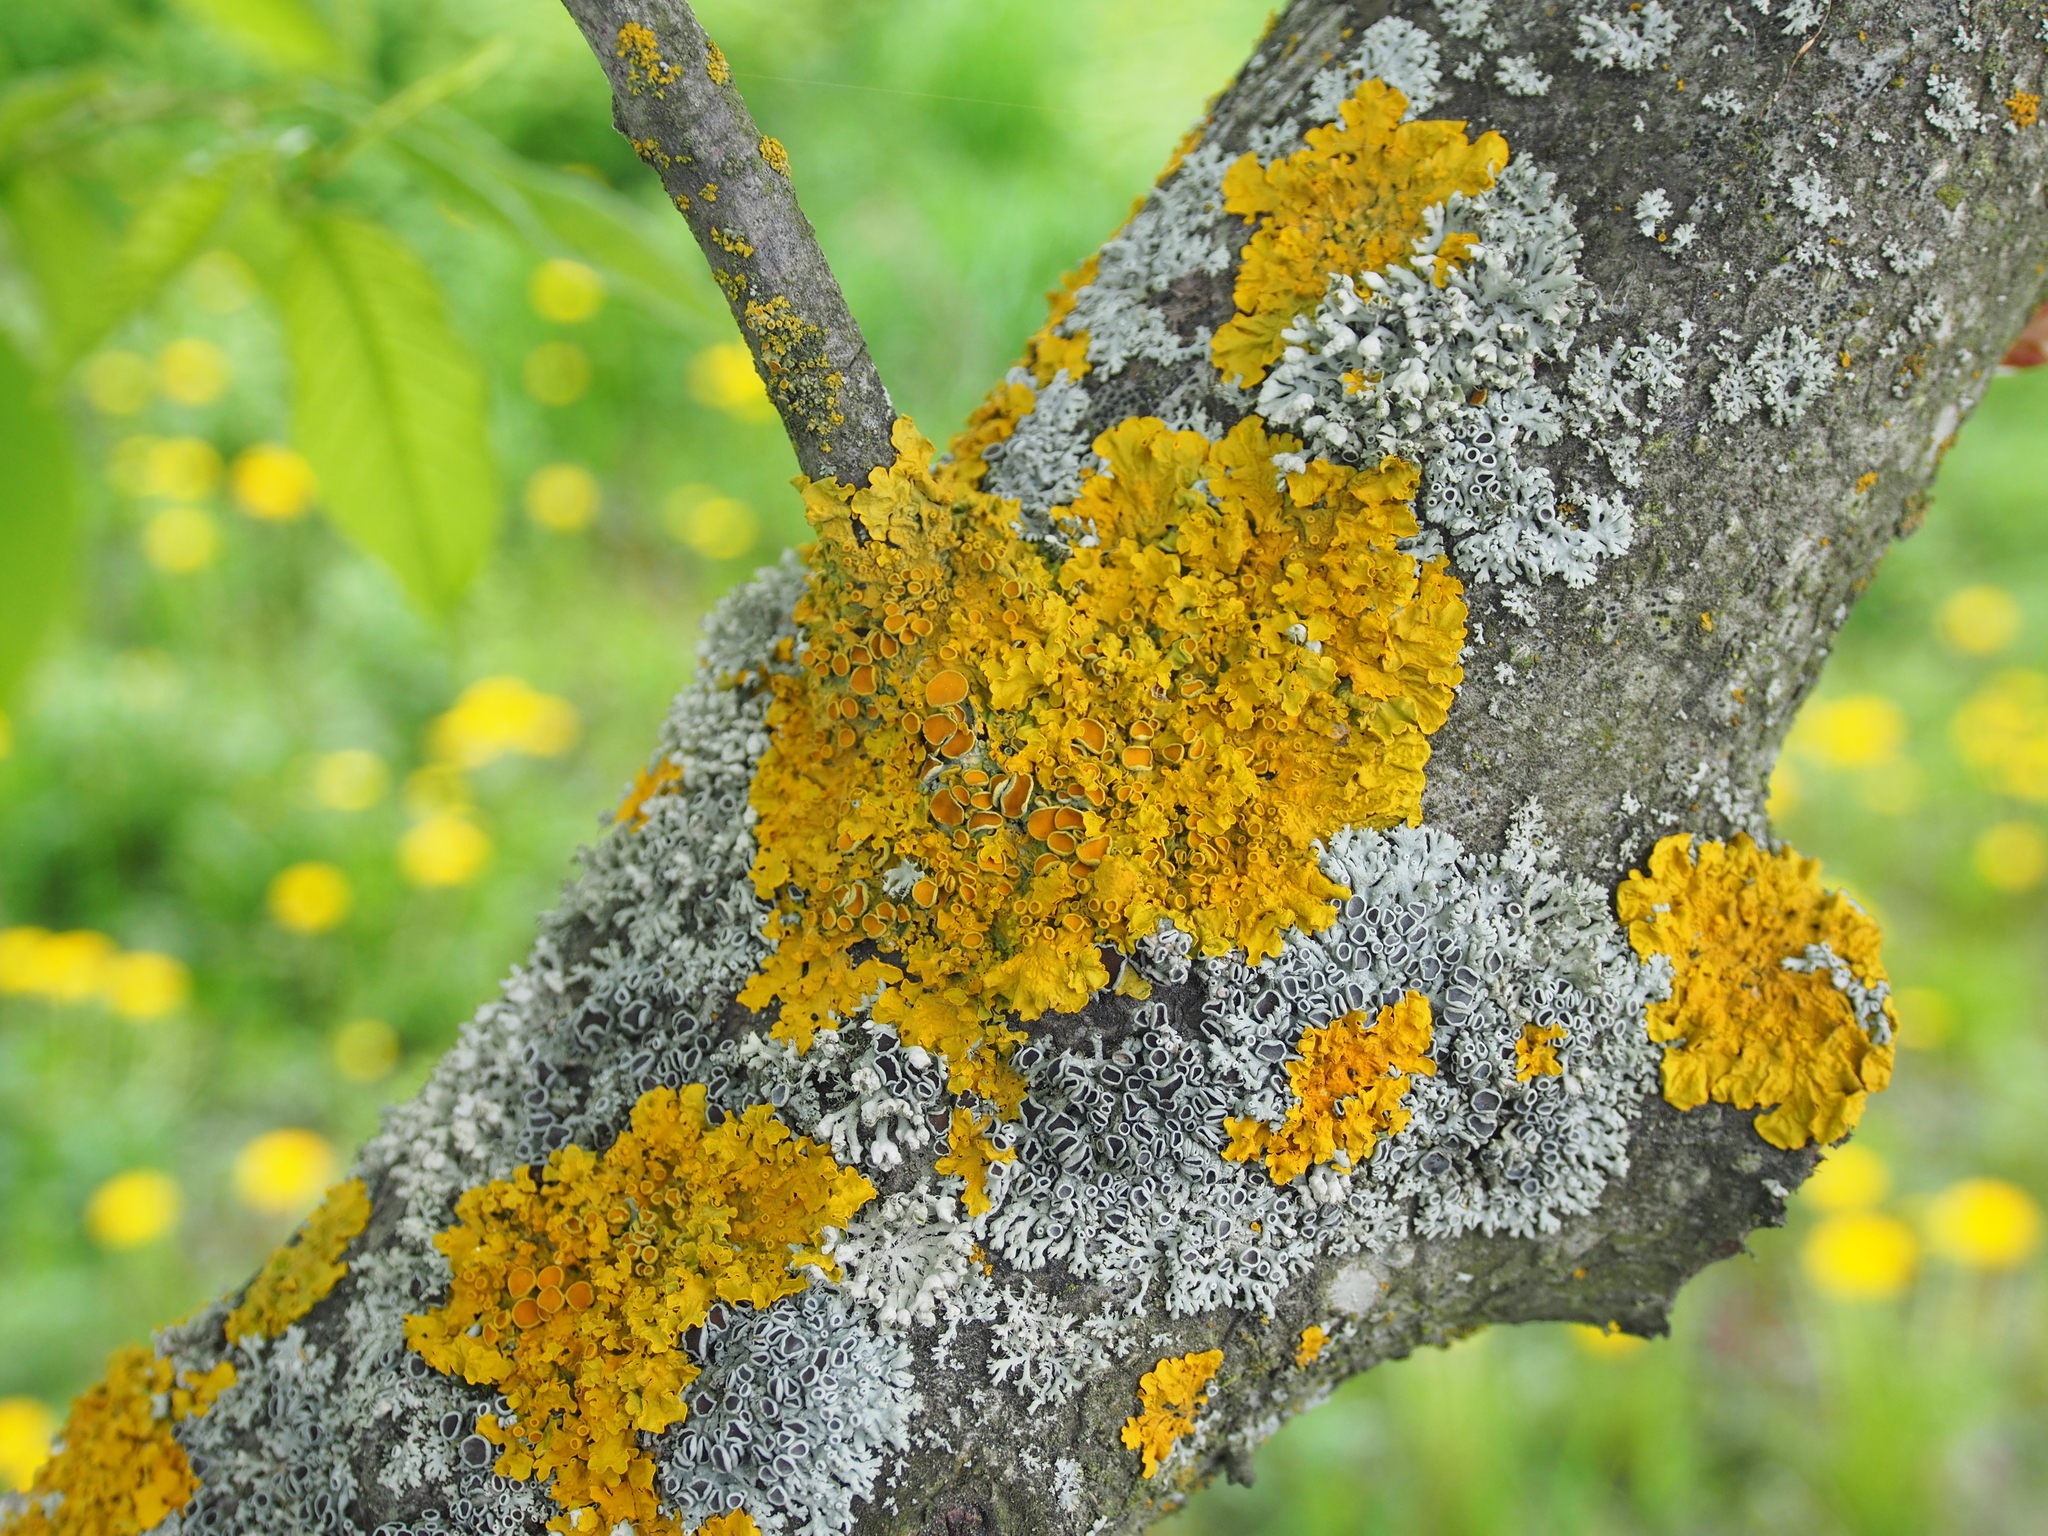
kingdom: Fungi
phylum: Ascomycota
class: Lecanoromycetes
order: Caliciales
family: Physciaceae
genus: Physcia
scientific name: Physcia stellaris
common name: Star rosette lichen
